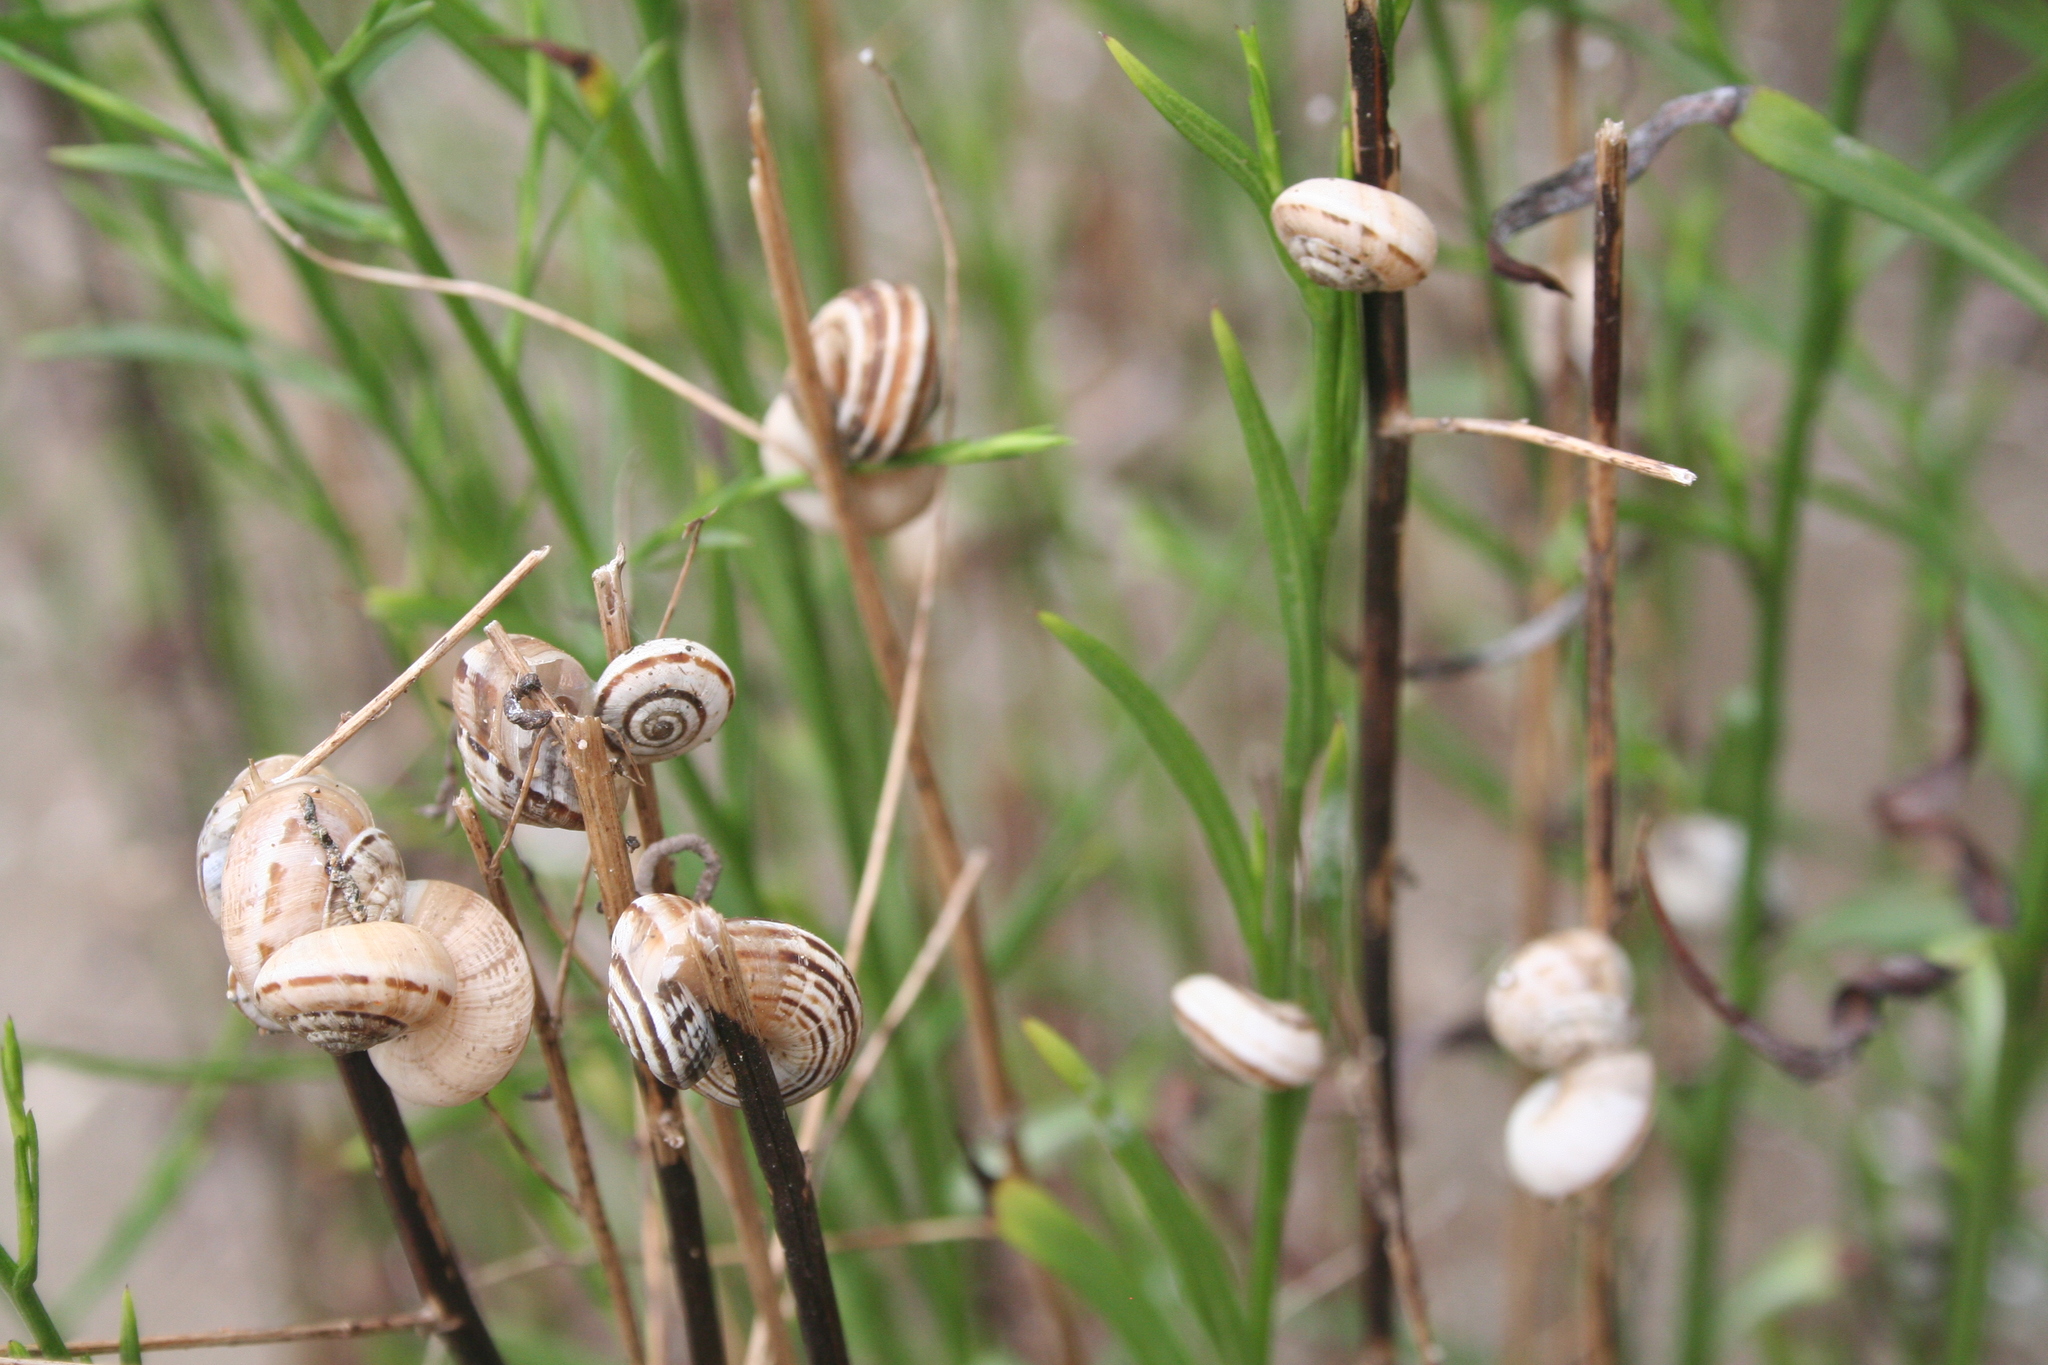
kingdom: Animalia
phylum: Mollusca
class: Gastropoda
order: Stylommatophora
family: Geomitridae
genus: Cernuella
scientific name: Cernuella virgata
